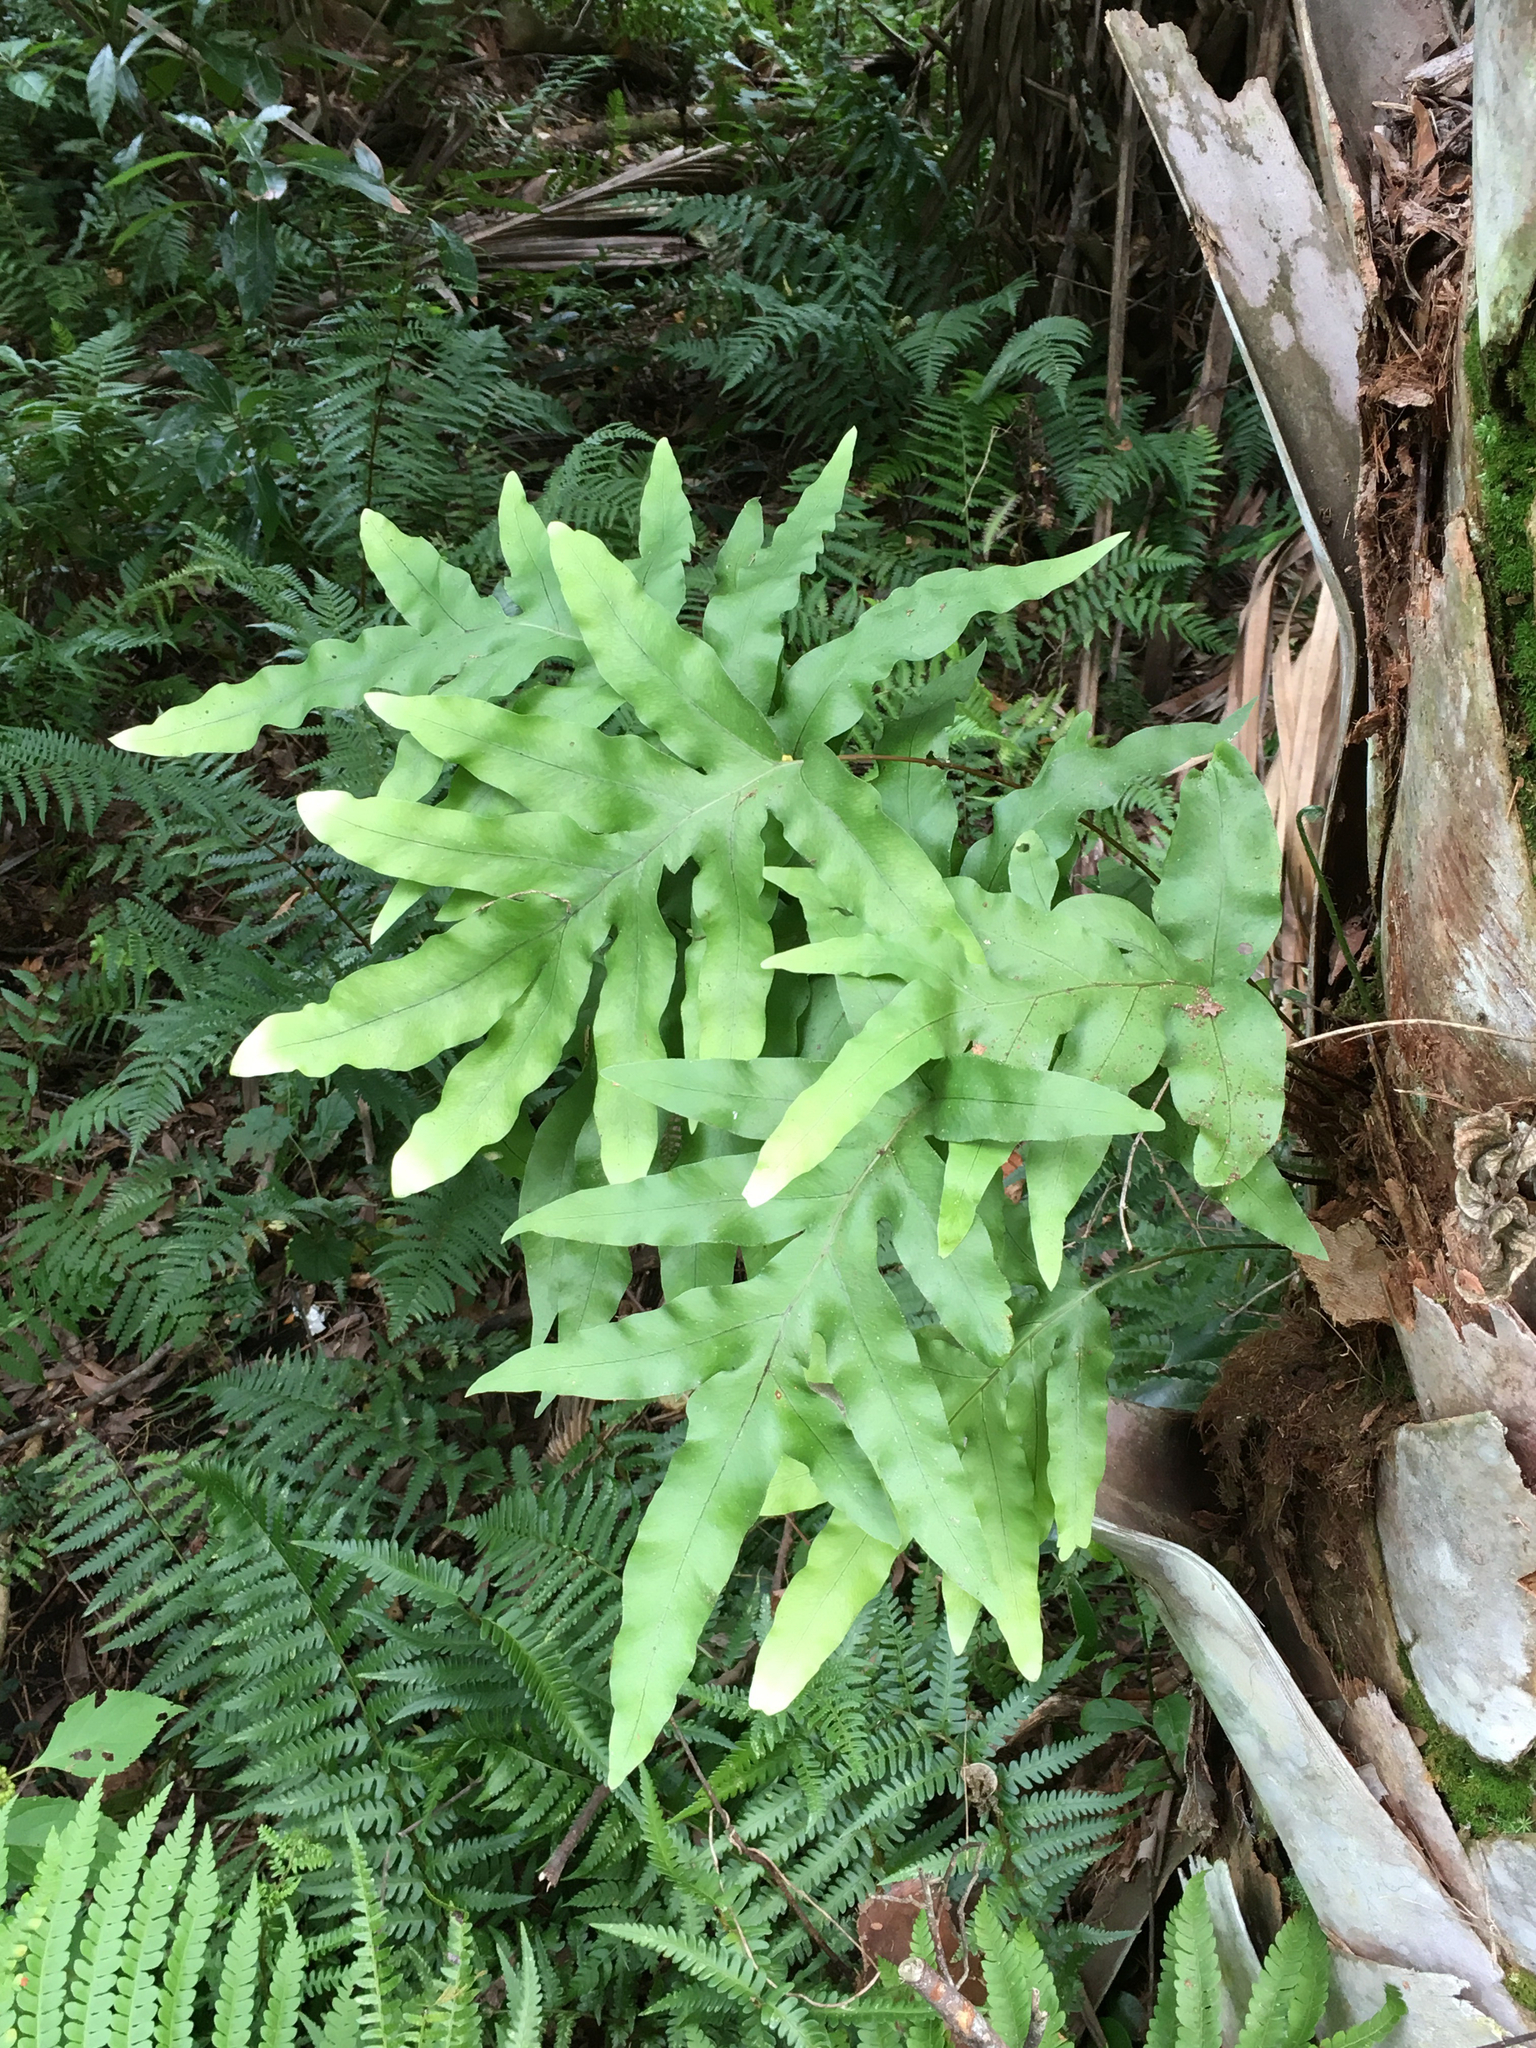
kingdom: Plantae
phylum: Tracheophyta
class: Polypodiopsida
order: Polypodiales
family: Polypodiaceae
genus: Phlebodium
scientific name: Phlebodium aureum
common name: Gold-foot fern
